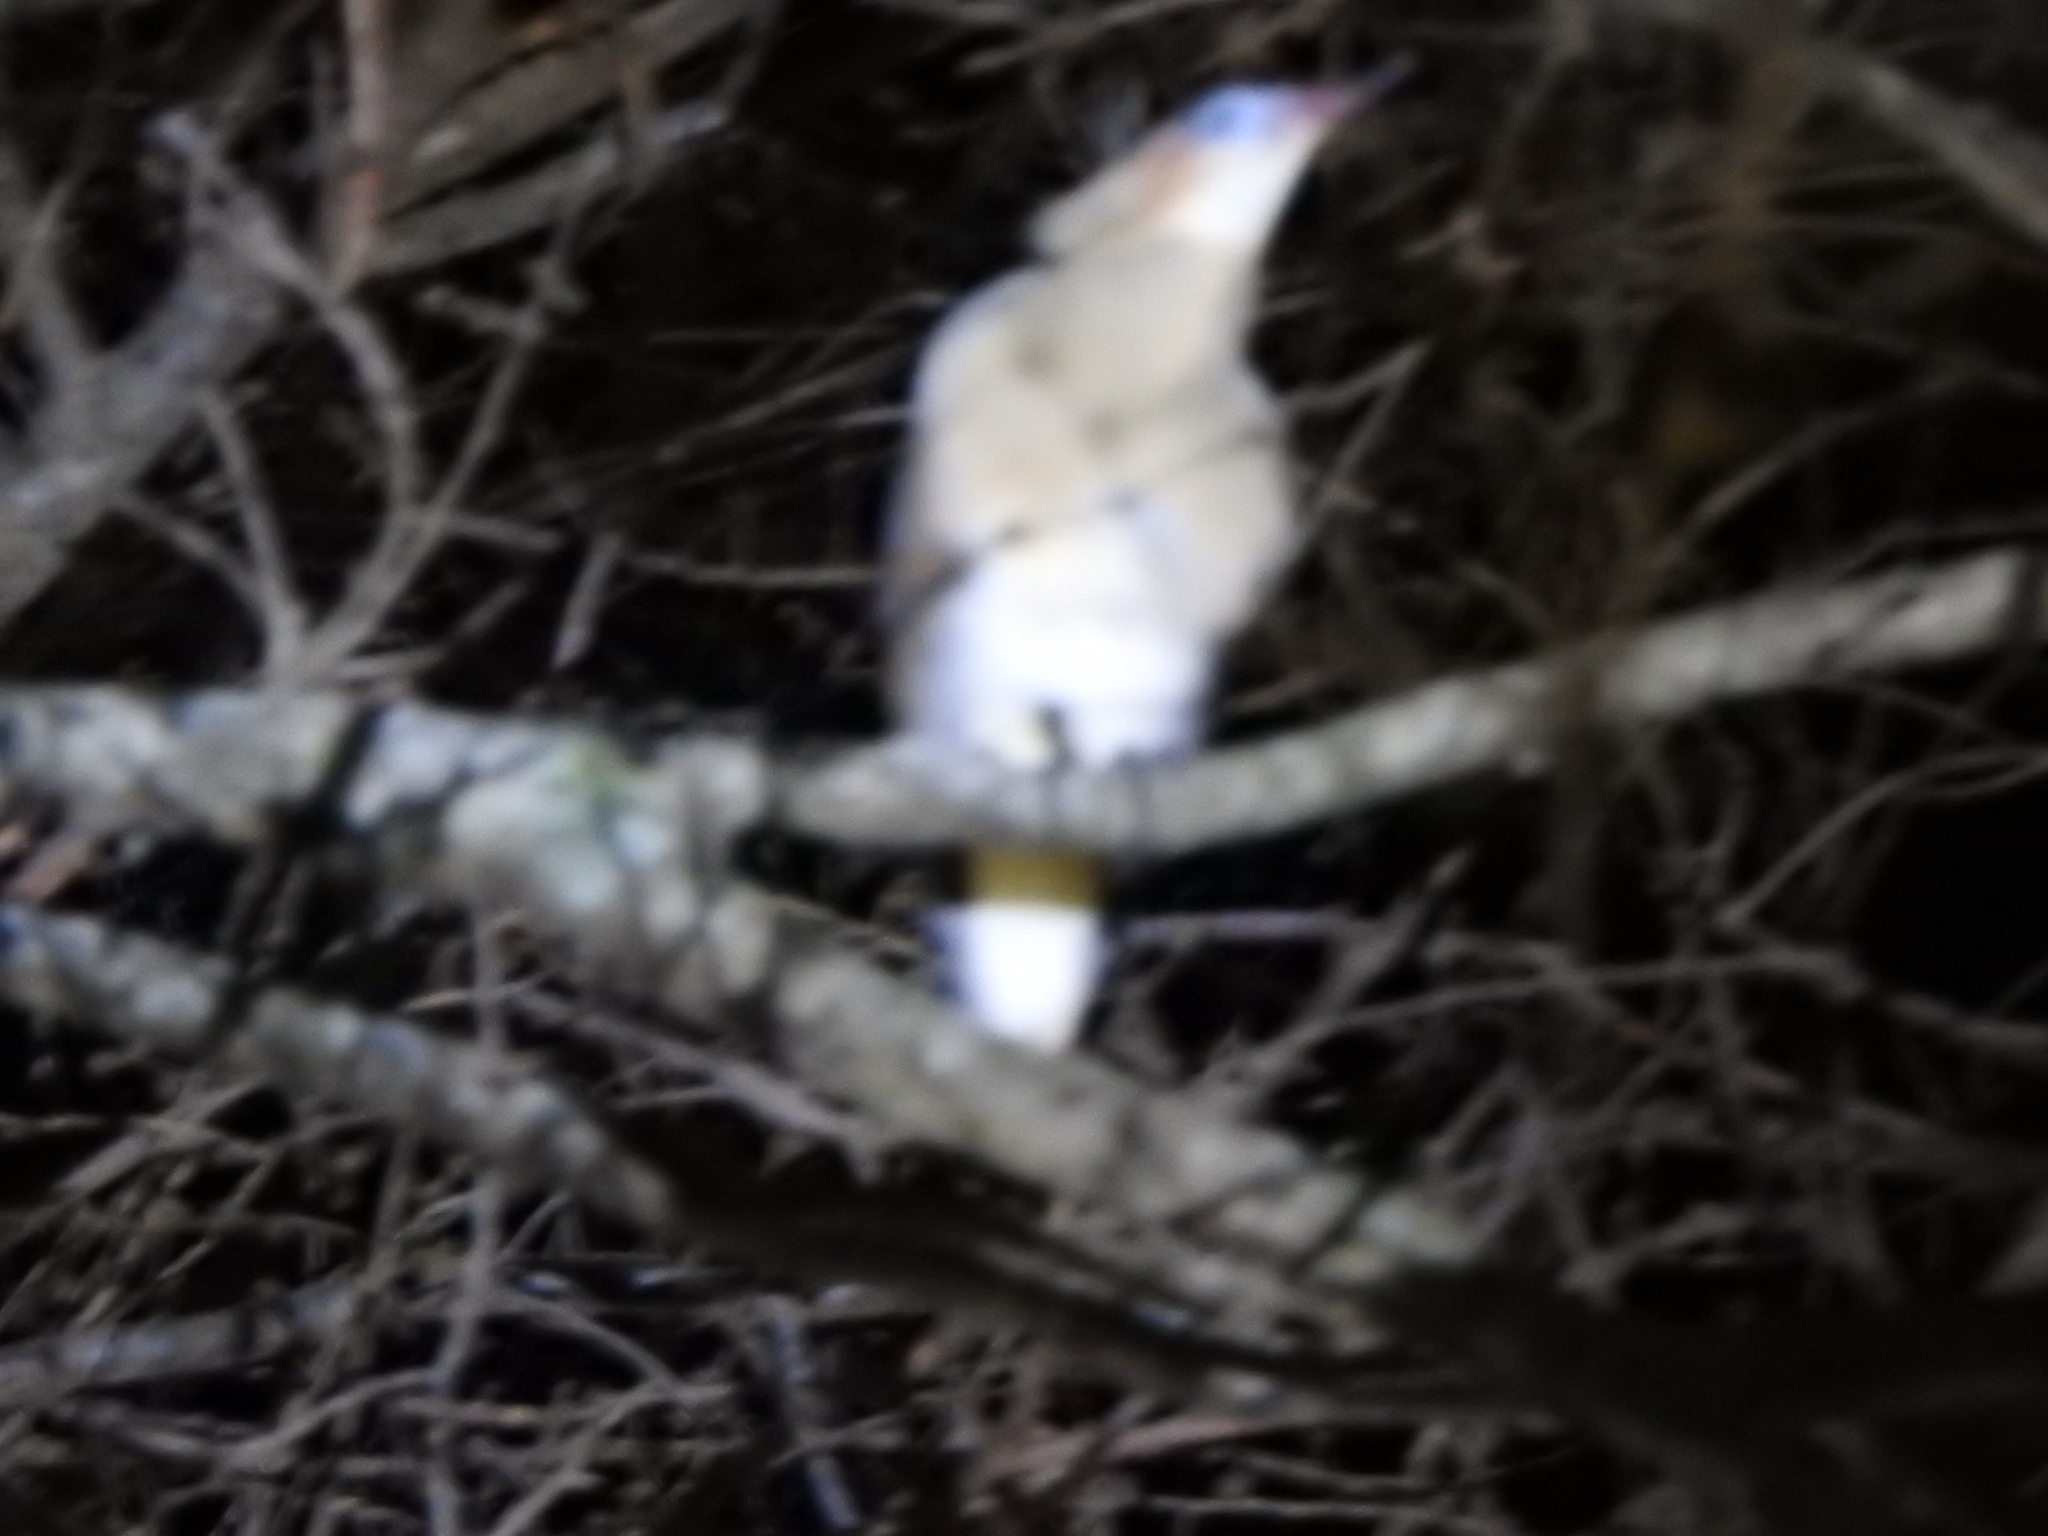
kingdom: Animalia
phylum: Chordata
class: Aves
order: Pelecaniformes
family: Ardeidae
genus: Syrigma
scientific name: Syrigma sibilatrix
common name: Whistling heron
